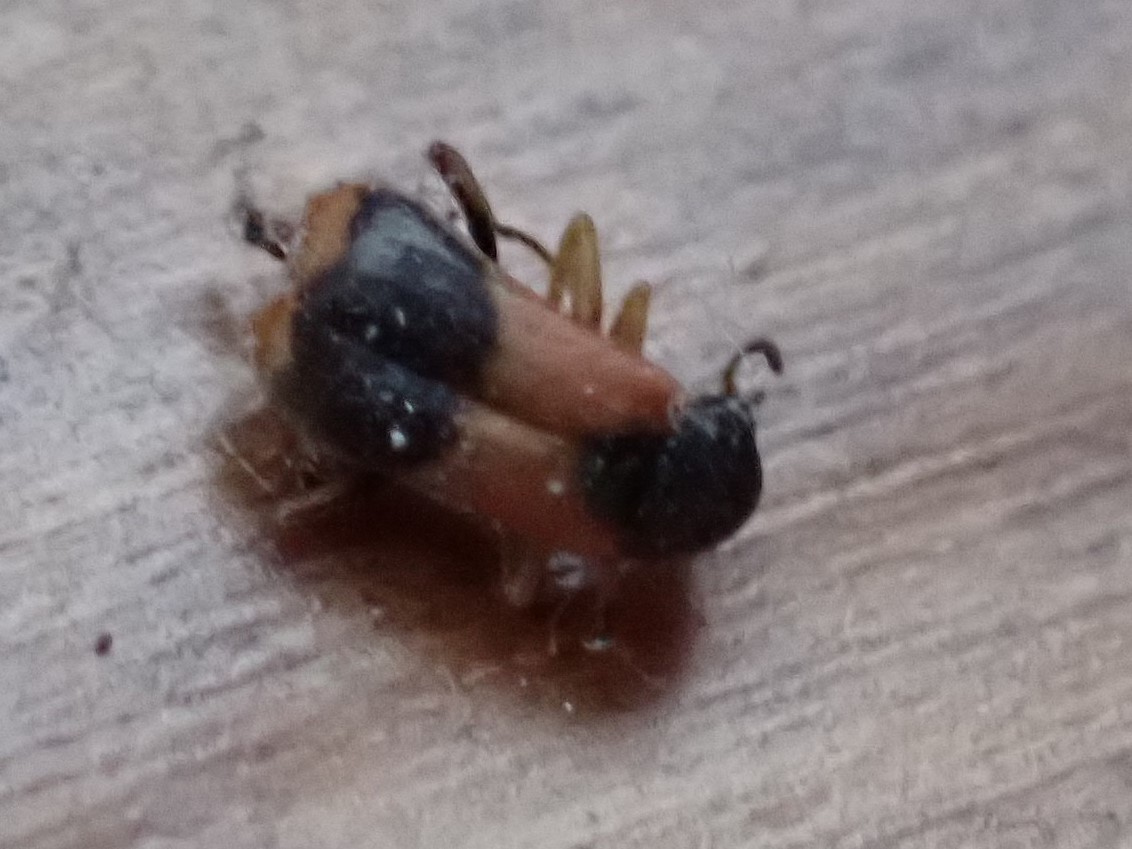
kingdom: Animalia
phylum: Arthropoda
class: Insecta
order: Coleoptera
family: Melyridae
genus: Anthocomus
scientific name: Anthocomus equestris
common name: Black-banded soft-winged flower beetle
